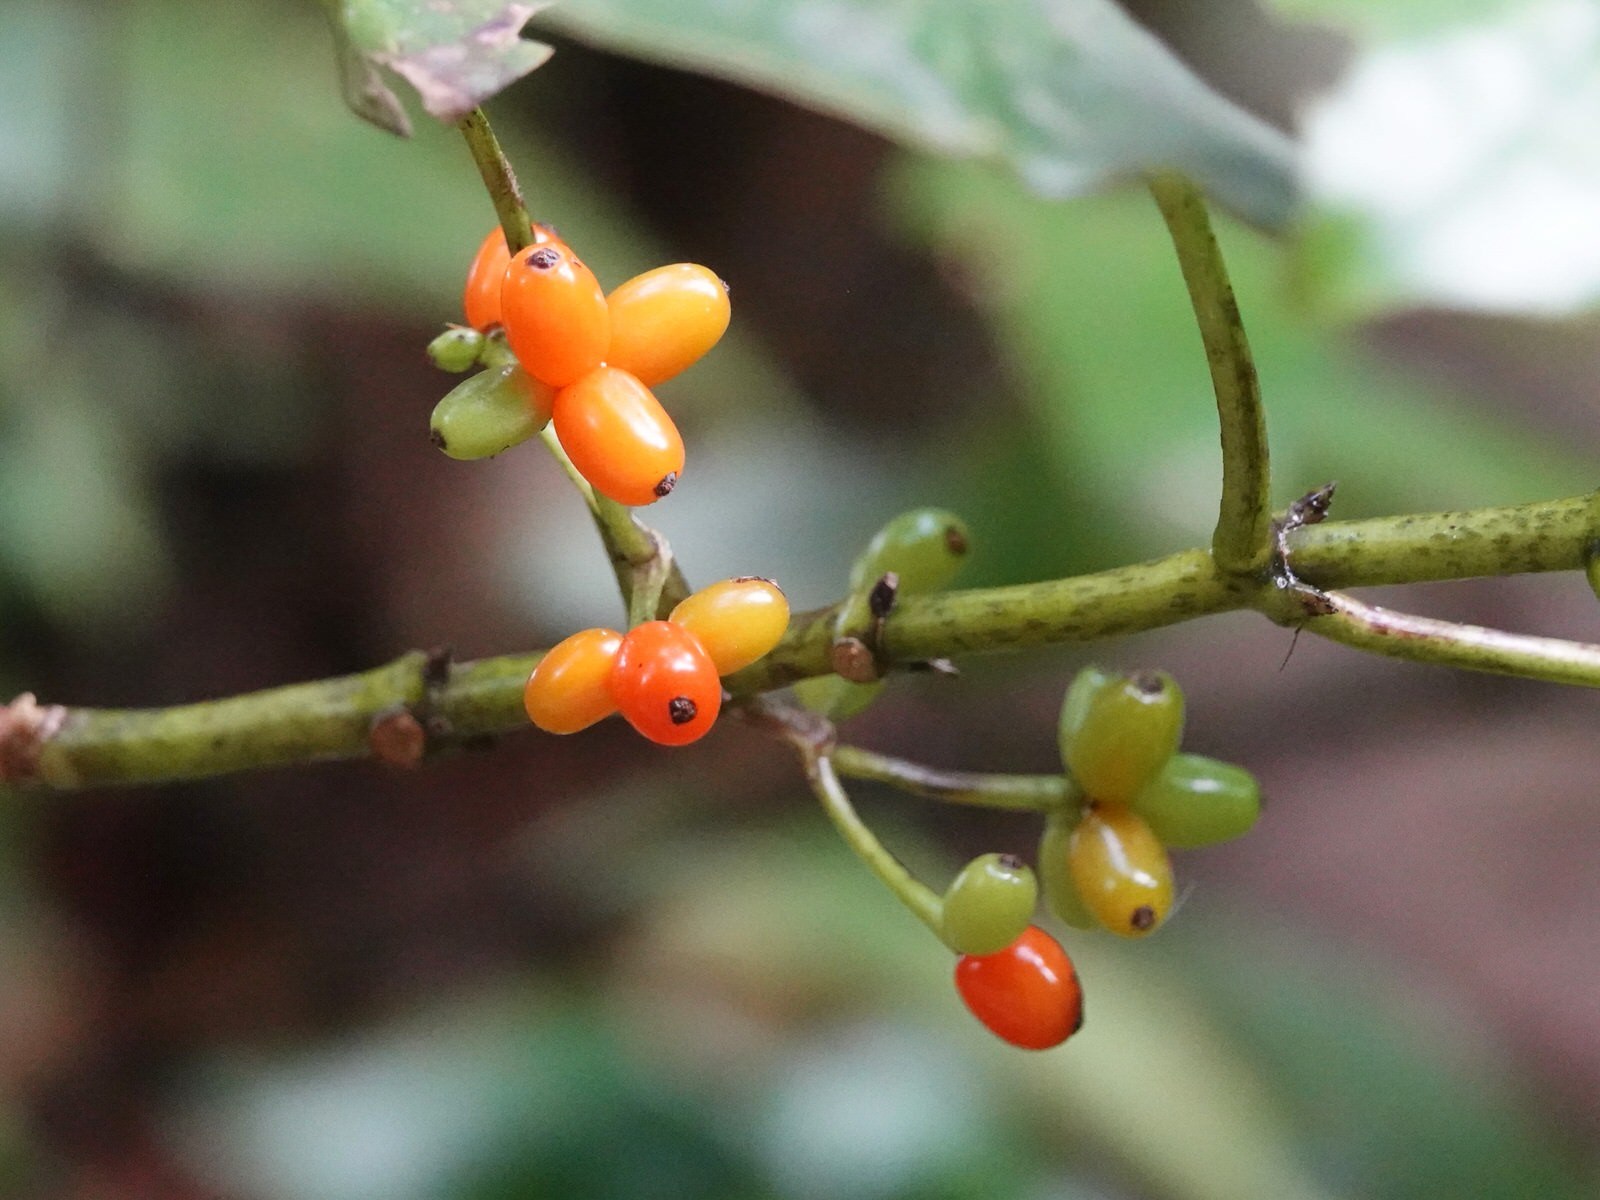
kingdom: Plantae
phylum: Tracheophyta
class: Magnoliopsida
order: Gentianales
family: Rubiaceae
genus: Coprosma
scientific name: Coprosma autumnalis
